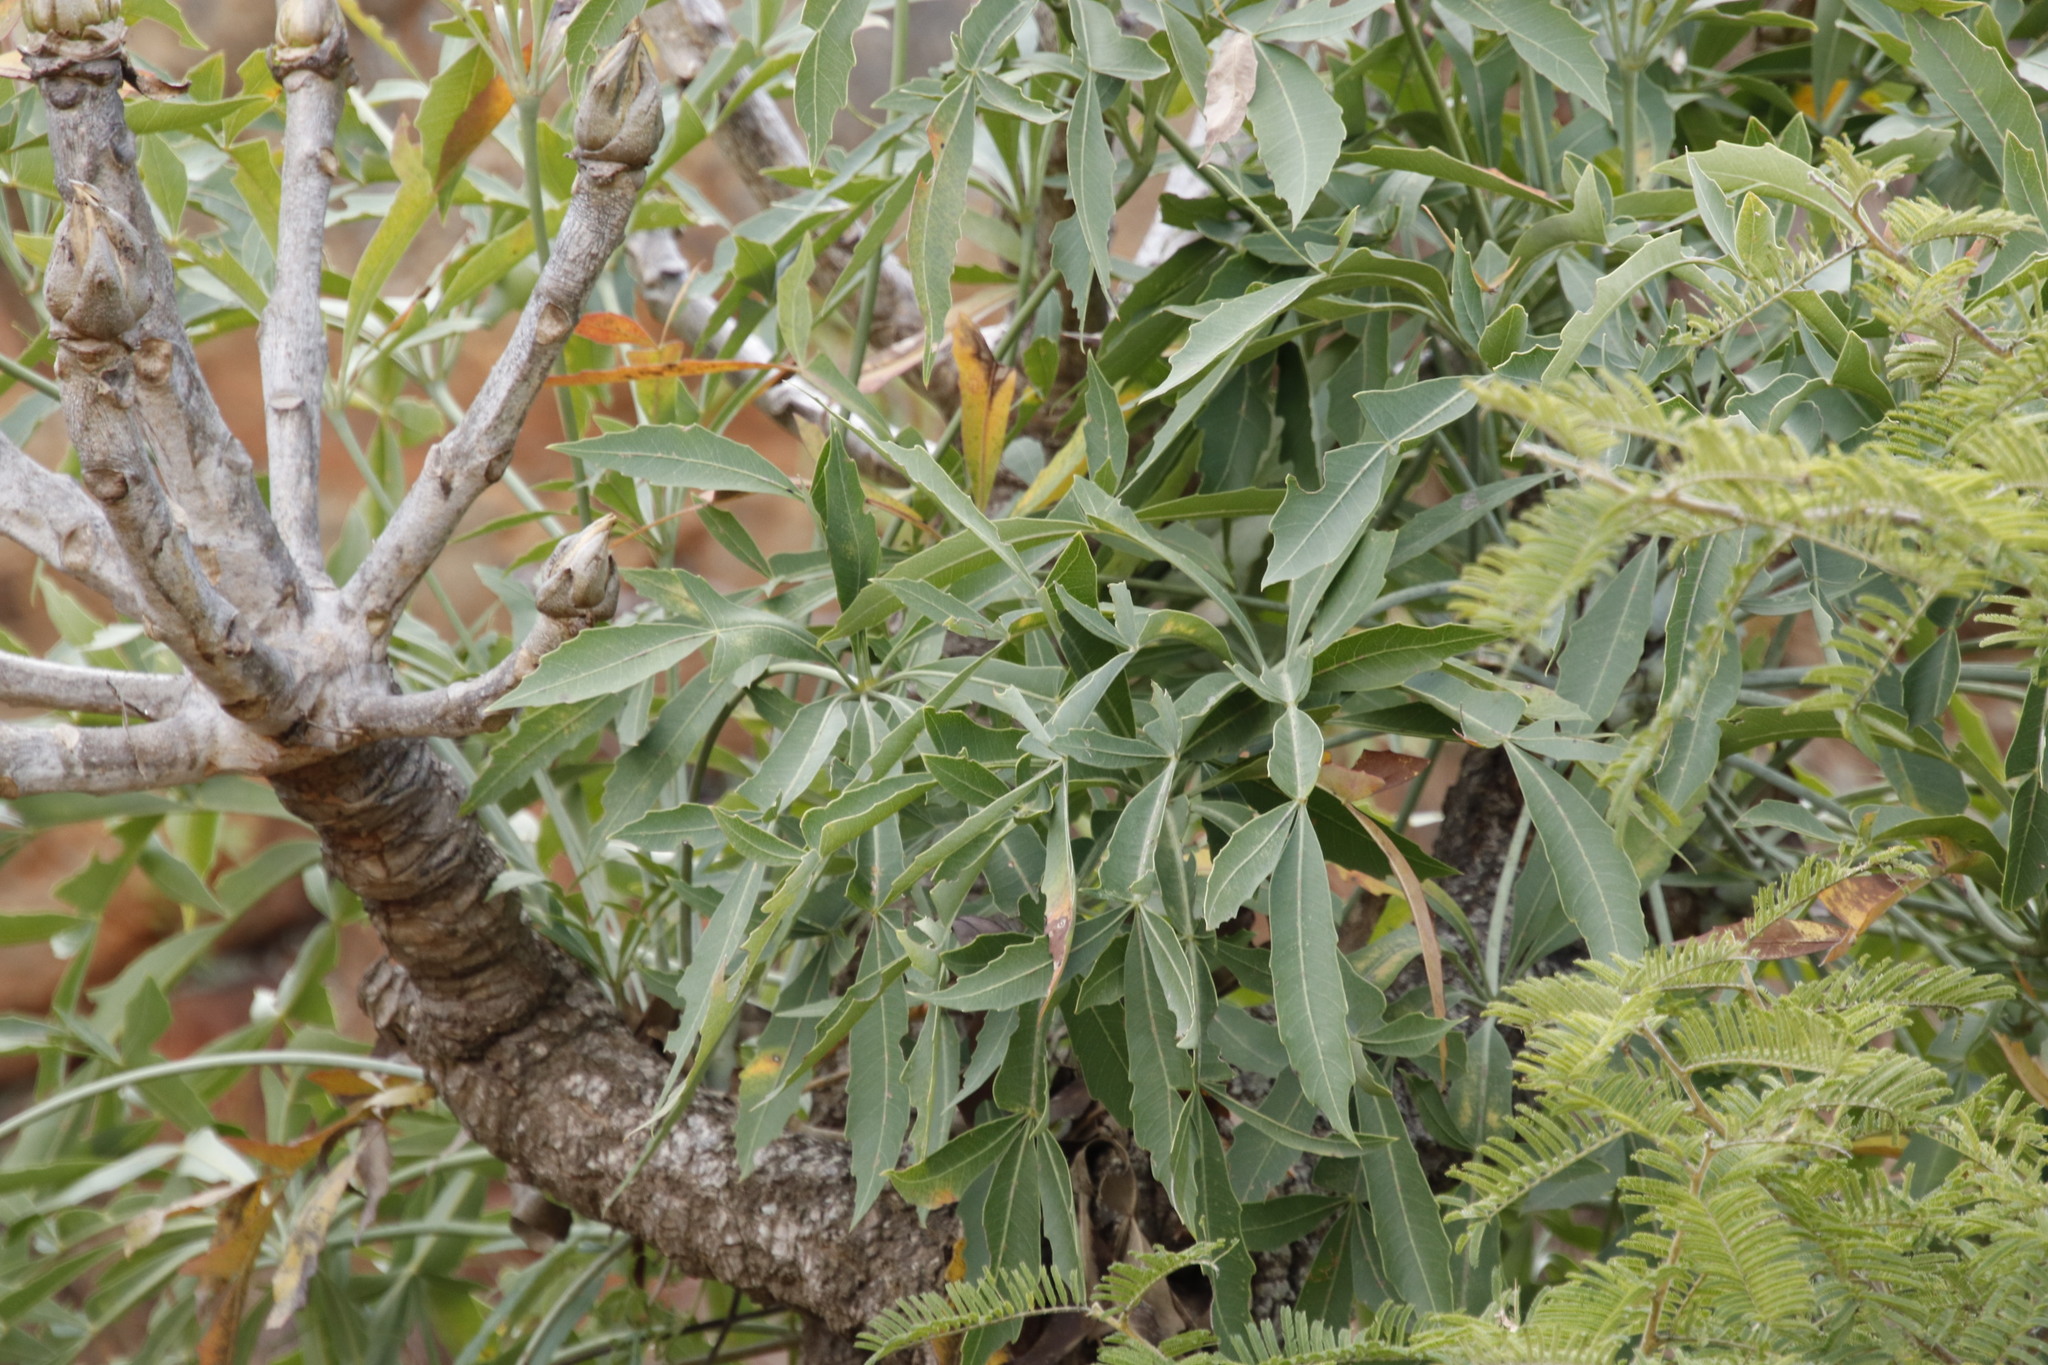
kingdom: Plantae
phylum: Tracheophyta
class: Magnoliopsida
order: Apiales
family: Araliaceae
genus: Cussonia
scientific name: Cussonia spicata
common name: Common cabbagetree
